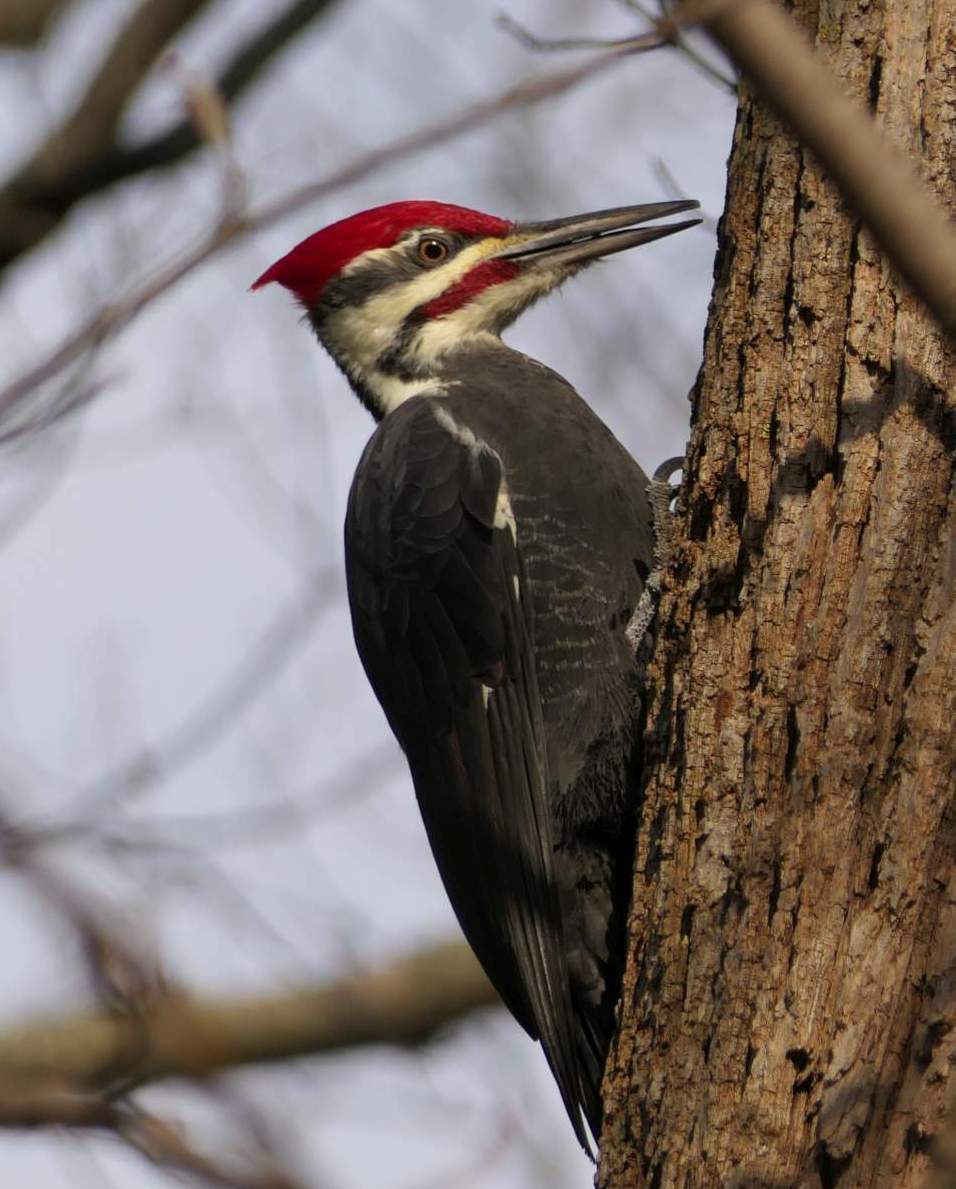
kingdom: Animalia
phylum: Chordata
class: Aves
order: Piciformes
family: Picidae
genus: Dryocopus
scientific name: Dryocopus pileatus
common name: Pileated woodpecker
